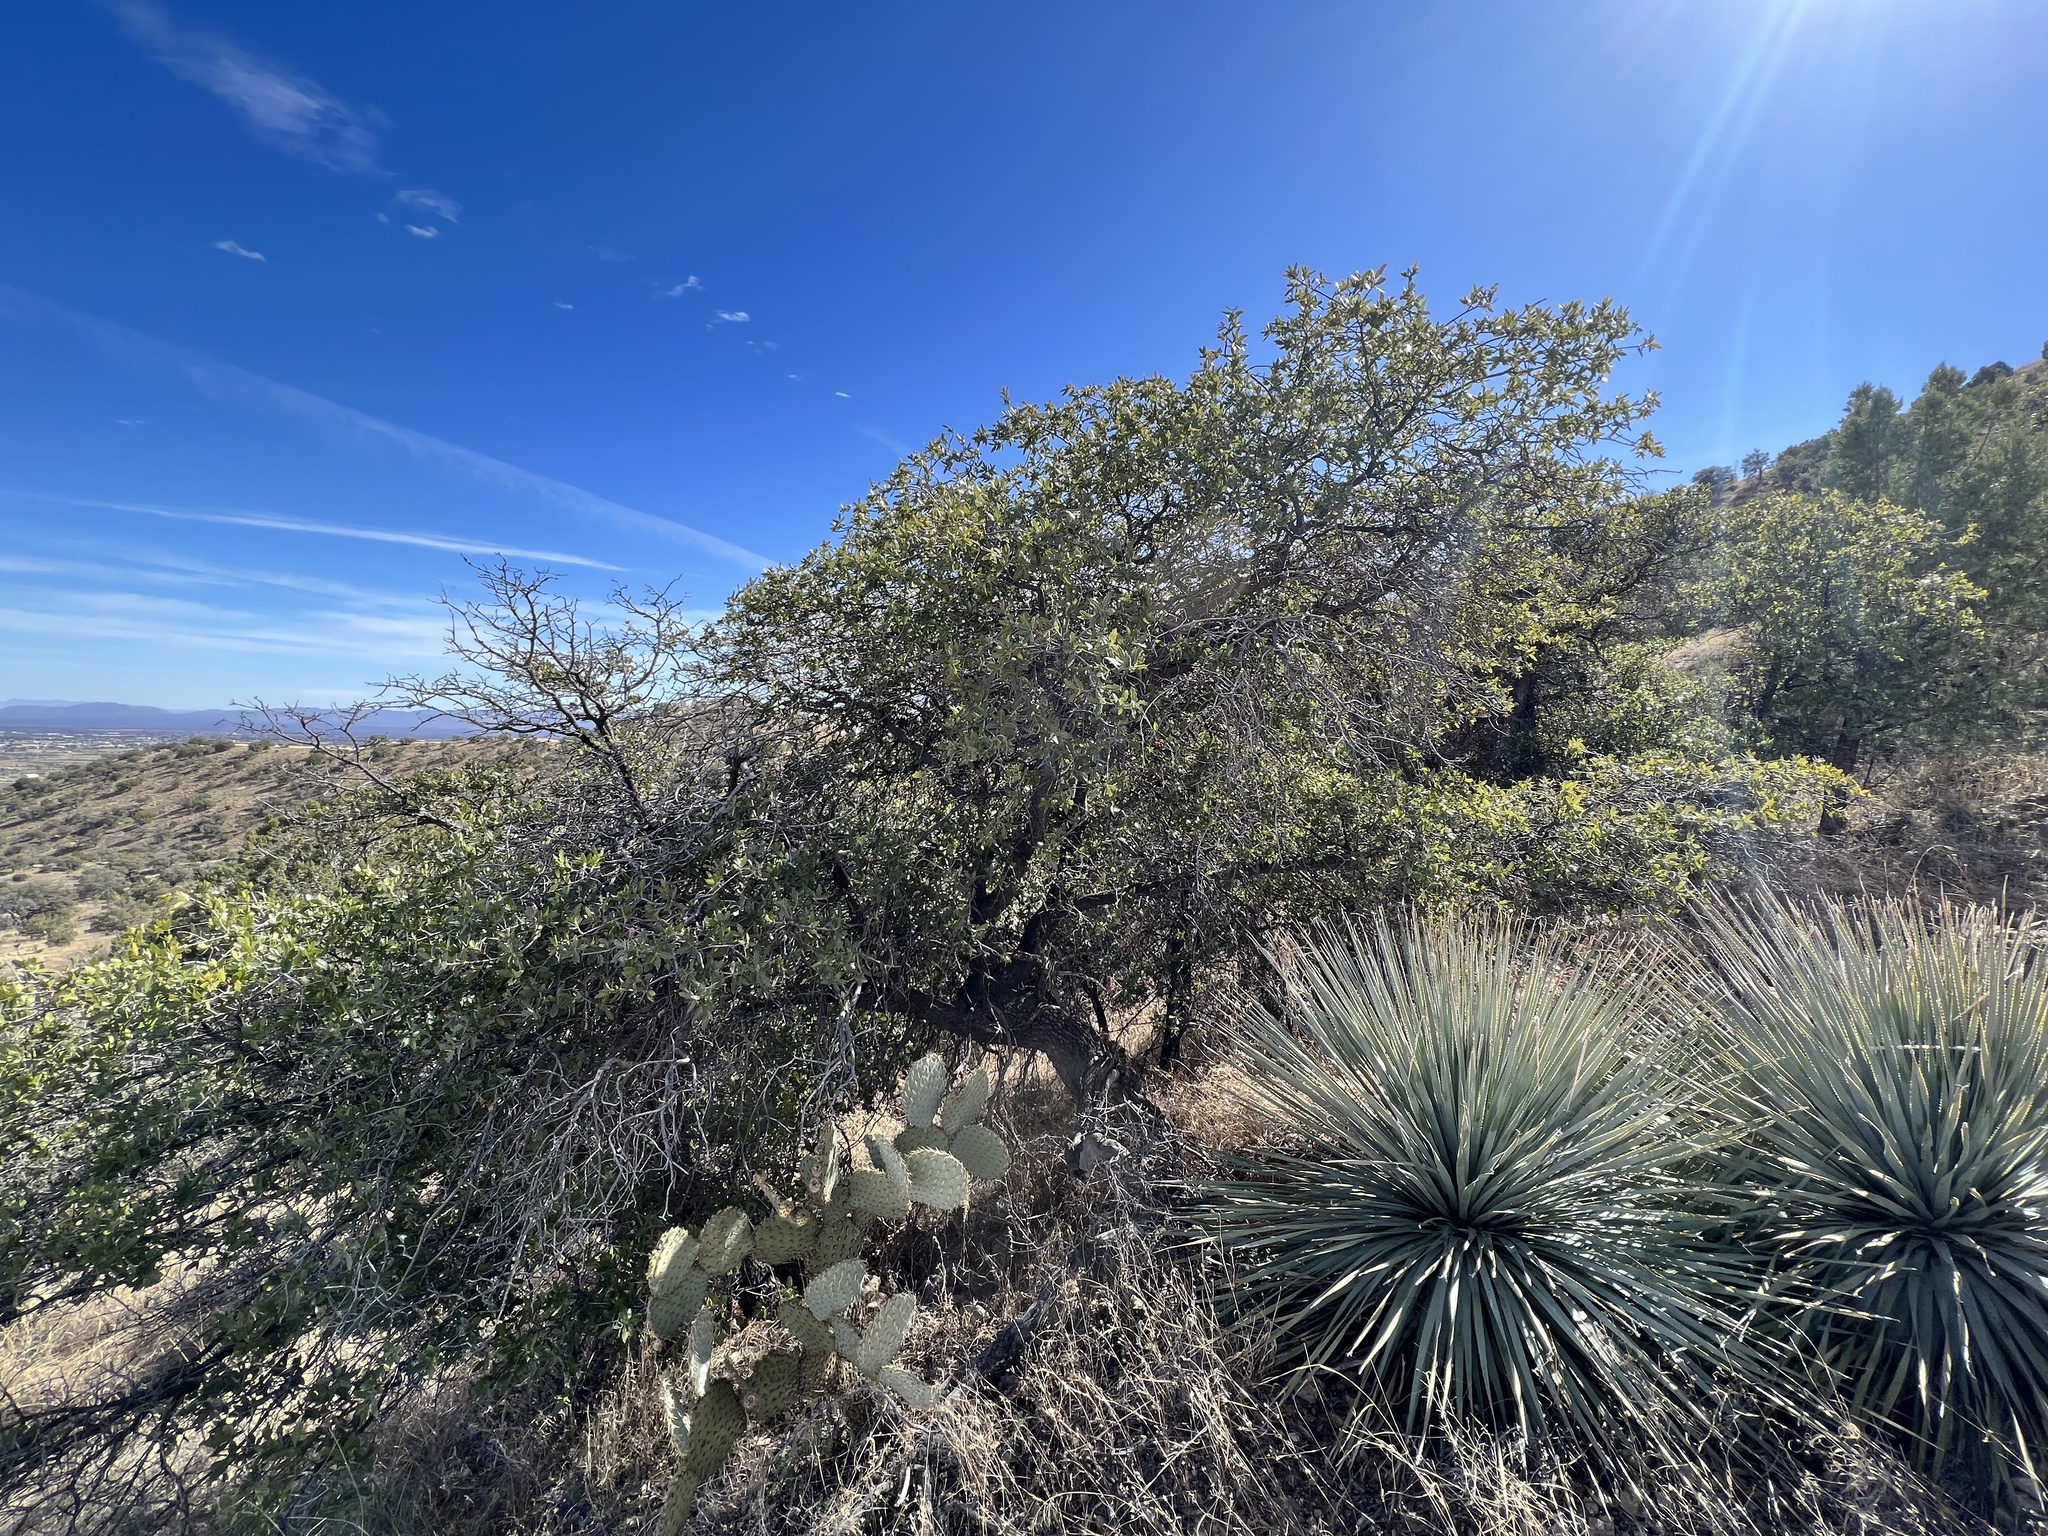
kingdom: Plantae
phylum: Tracheophyta
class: Magnoliopsida
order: Fagales
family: Fagaceae
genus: Quercus
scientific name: Quercus emoryi
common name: Emory oak
